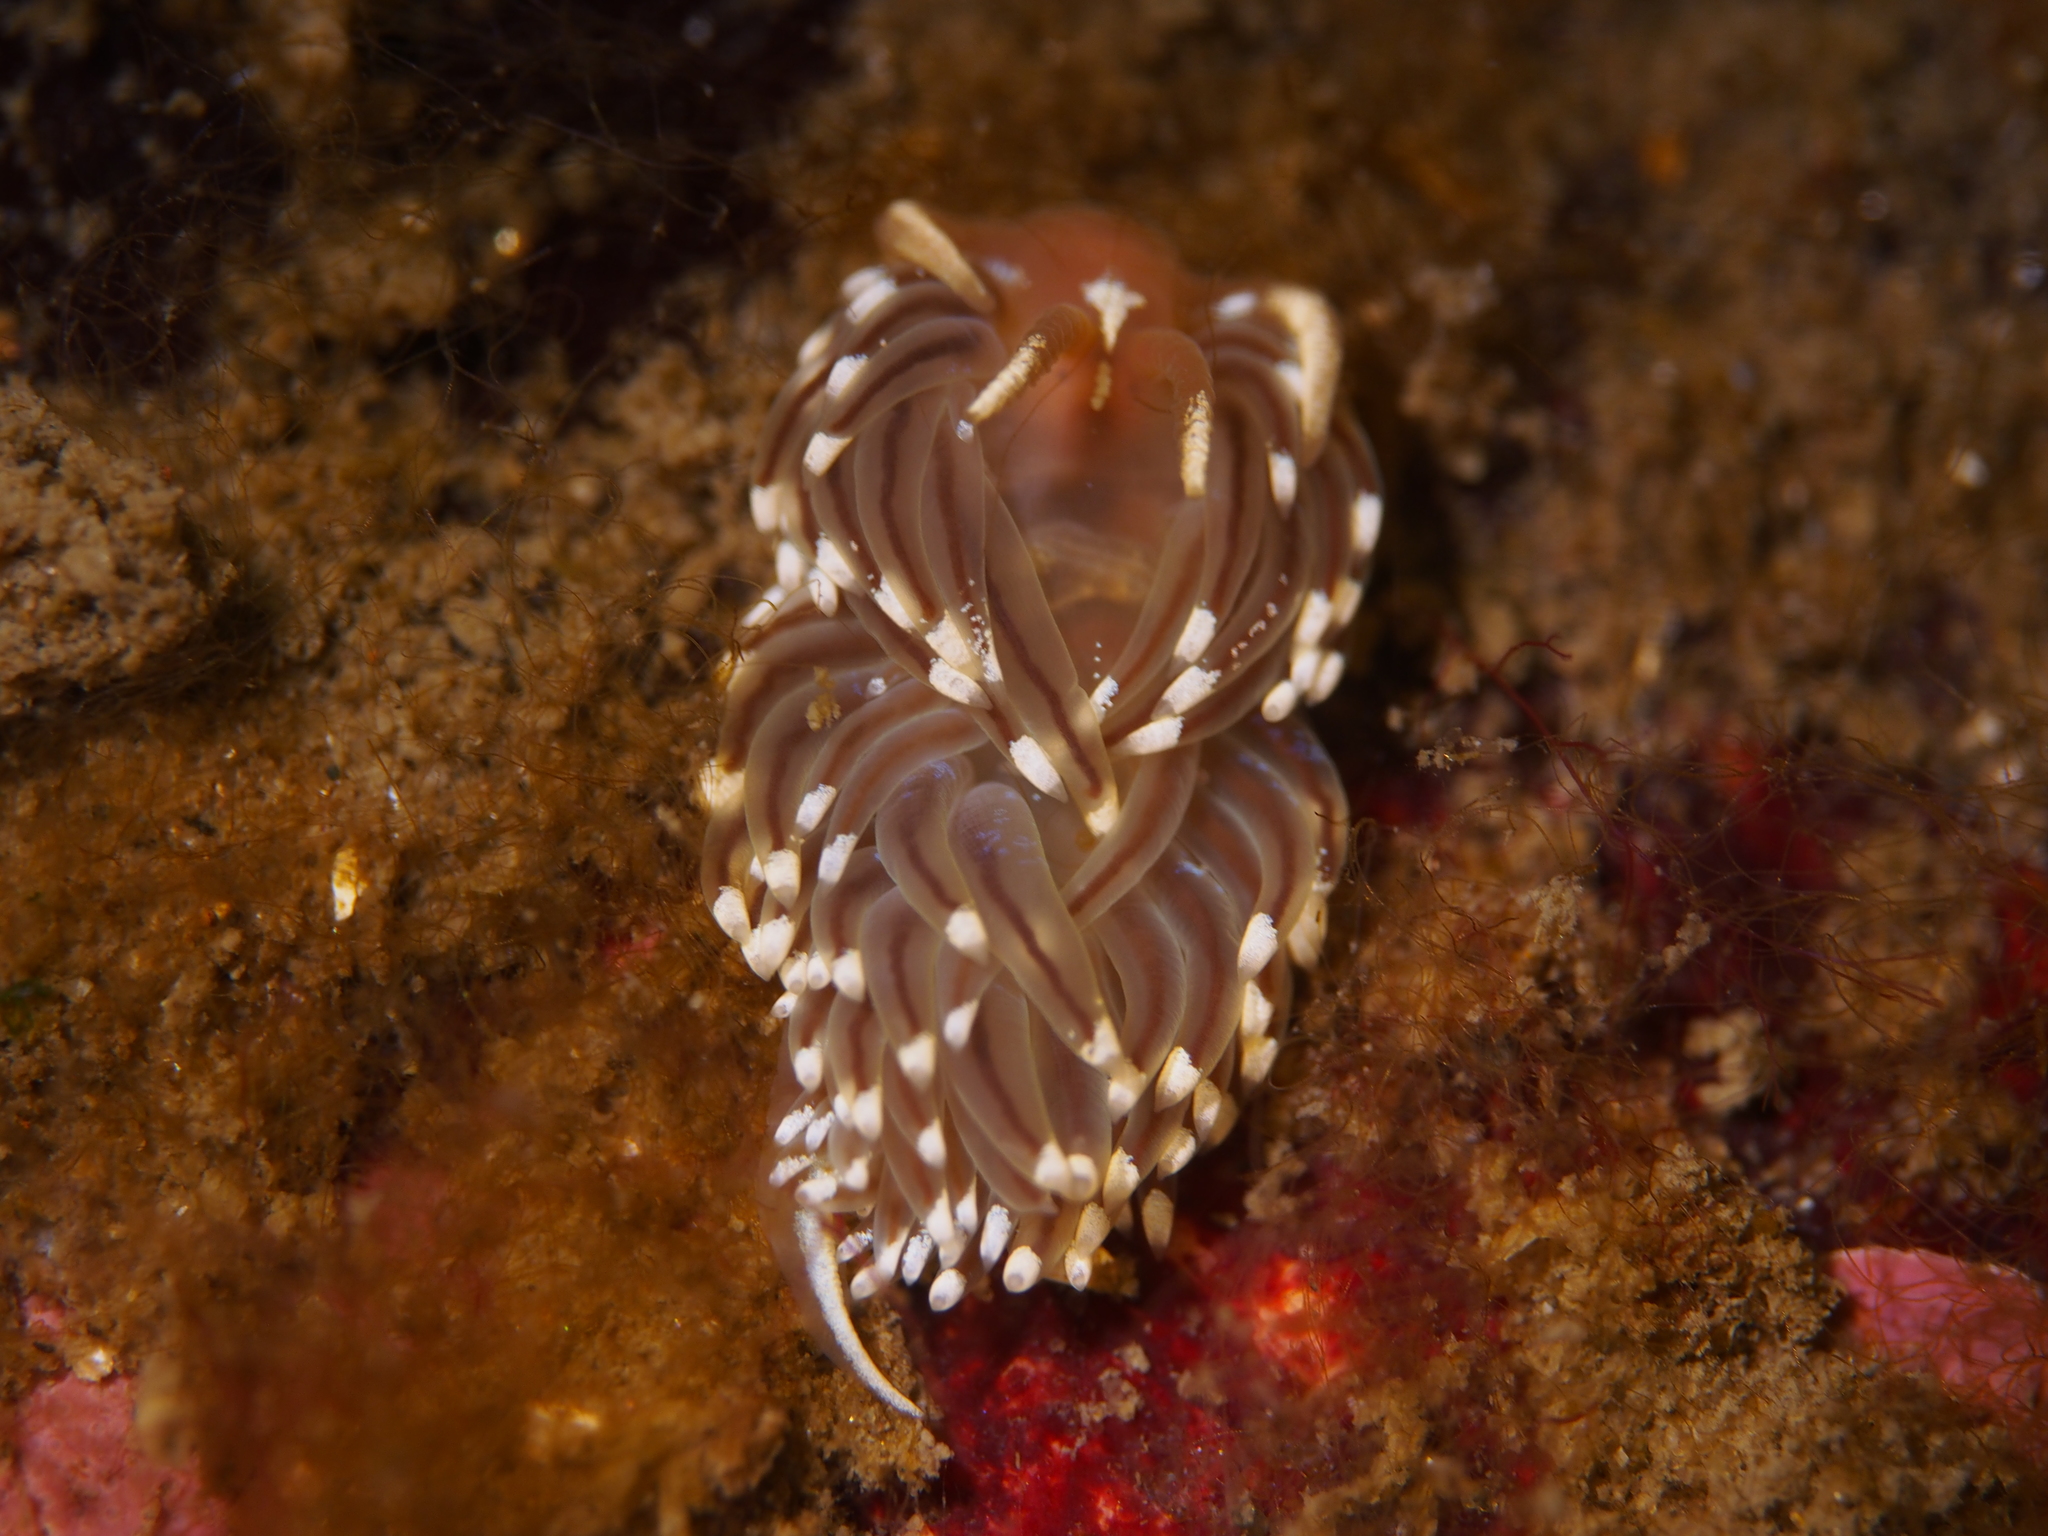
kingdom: Animalia
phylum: Mollusca
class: Gastropoda
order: Nudibranchia
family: Facelinidae
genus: Facelina
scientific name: Facelina auriculata
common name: Slender facelina
